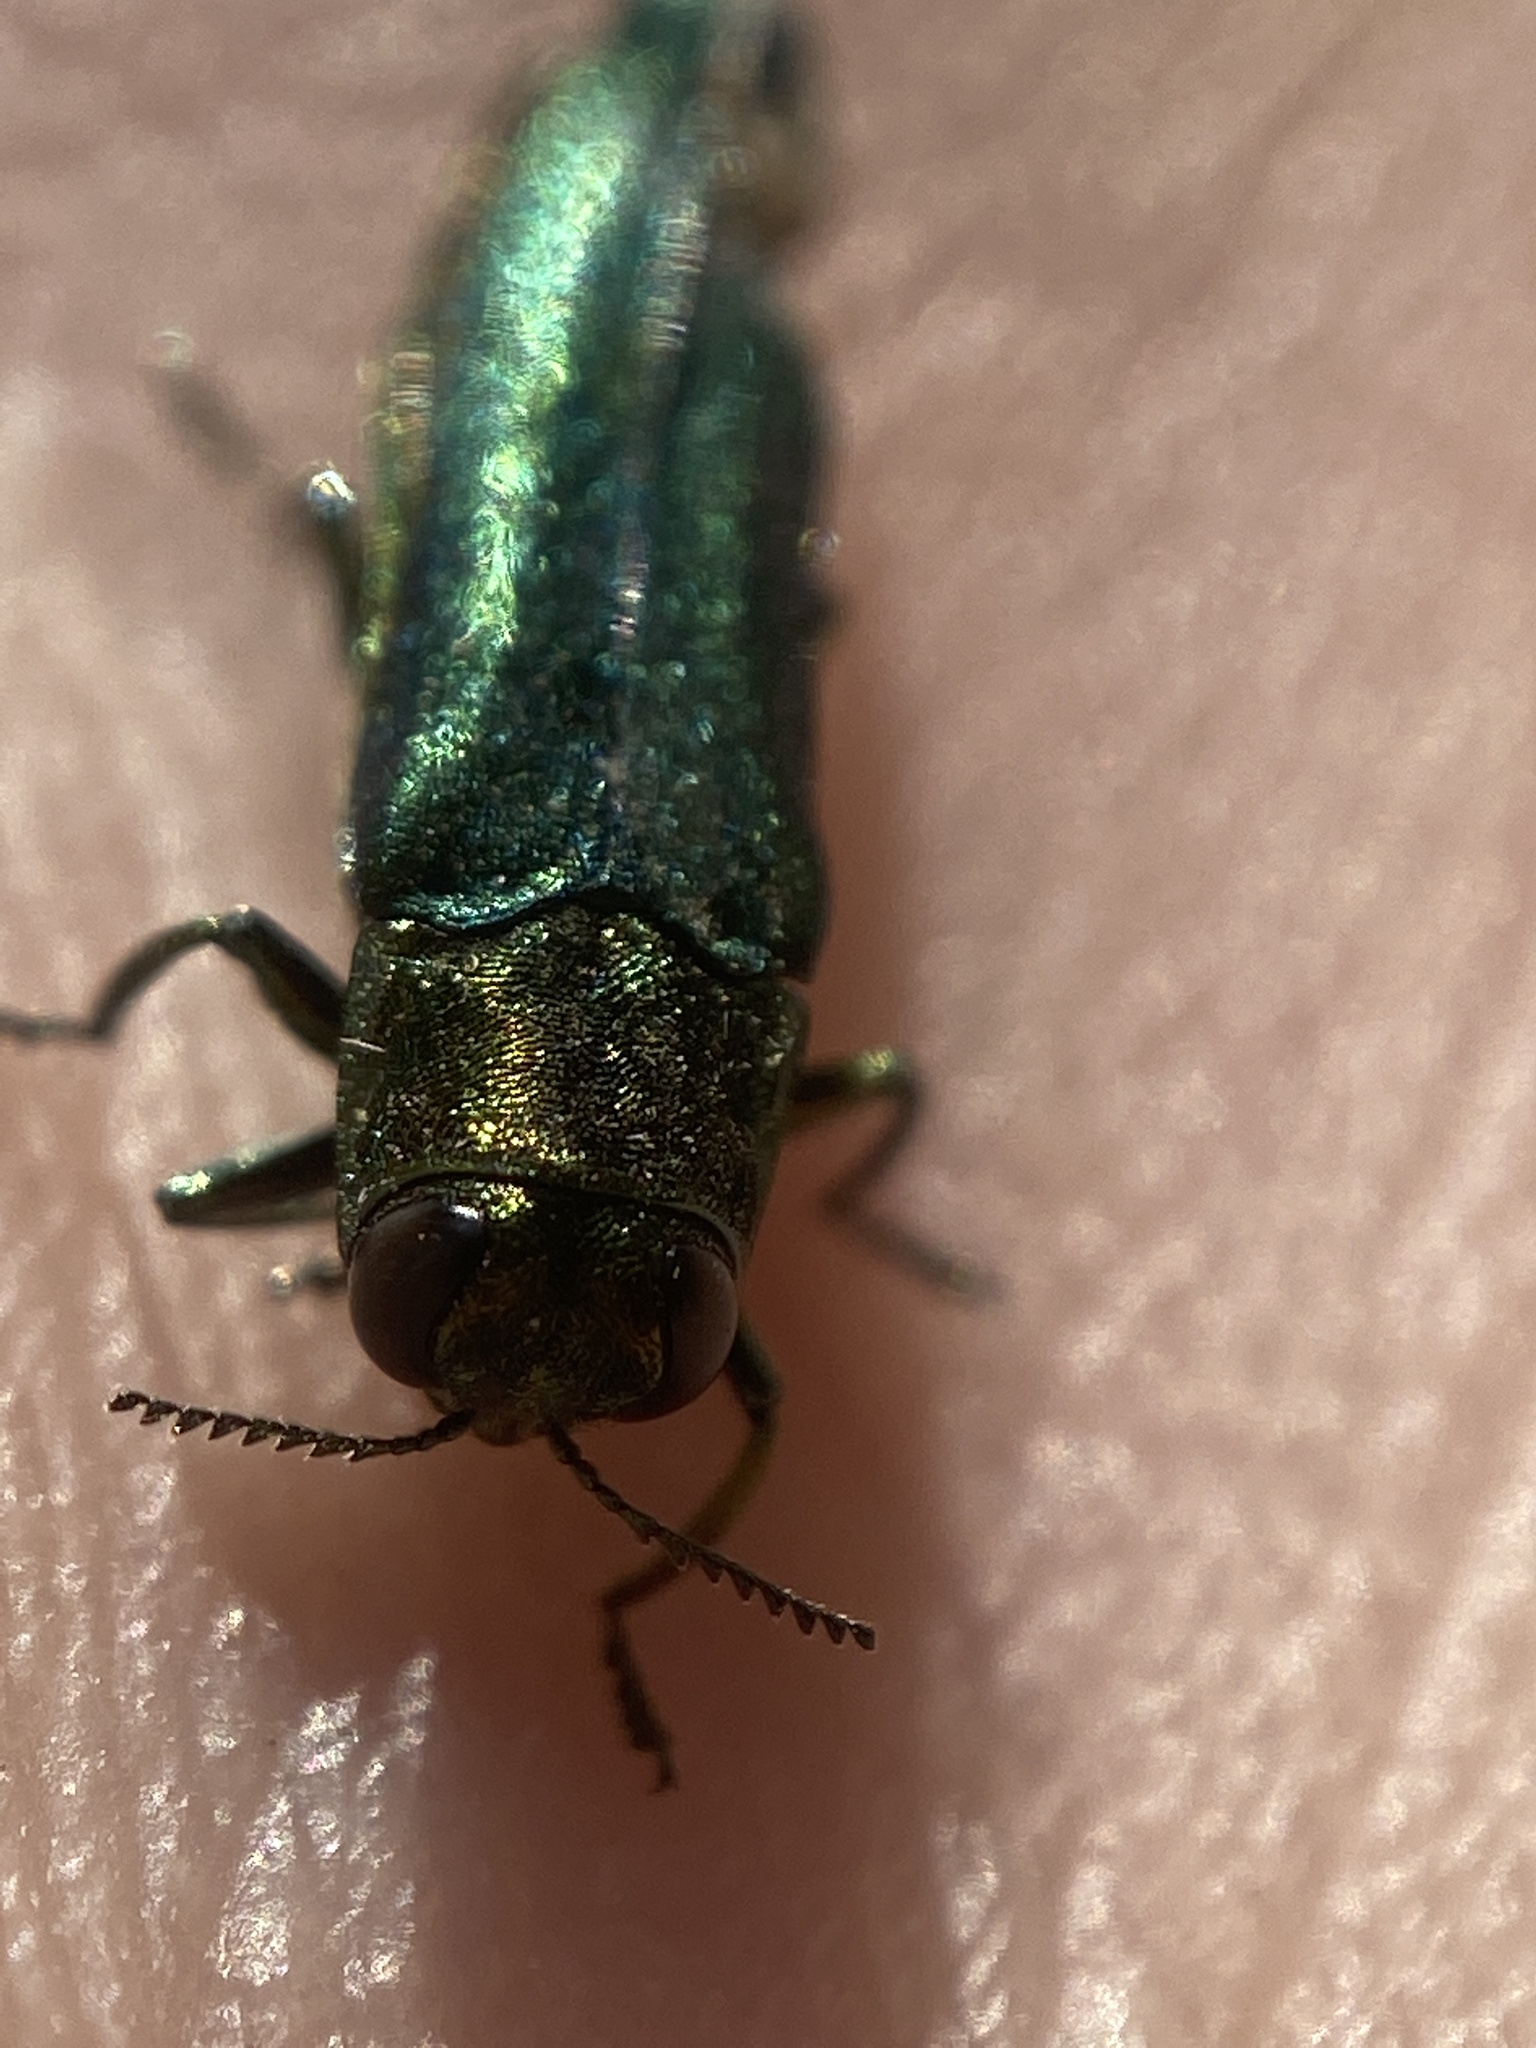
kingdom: Animalia
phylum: Arthropoda
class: Insecta
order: Coleoptera
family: Buprestidae
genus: Agrilus
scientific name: Agrilus planipennis
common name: Emerald ash borer
